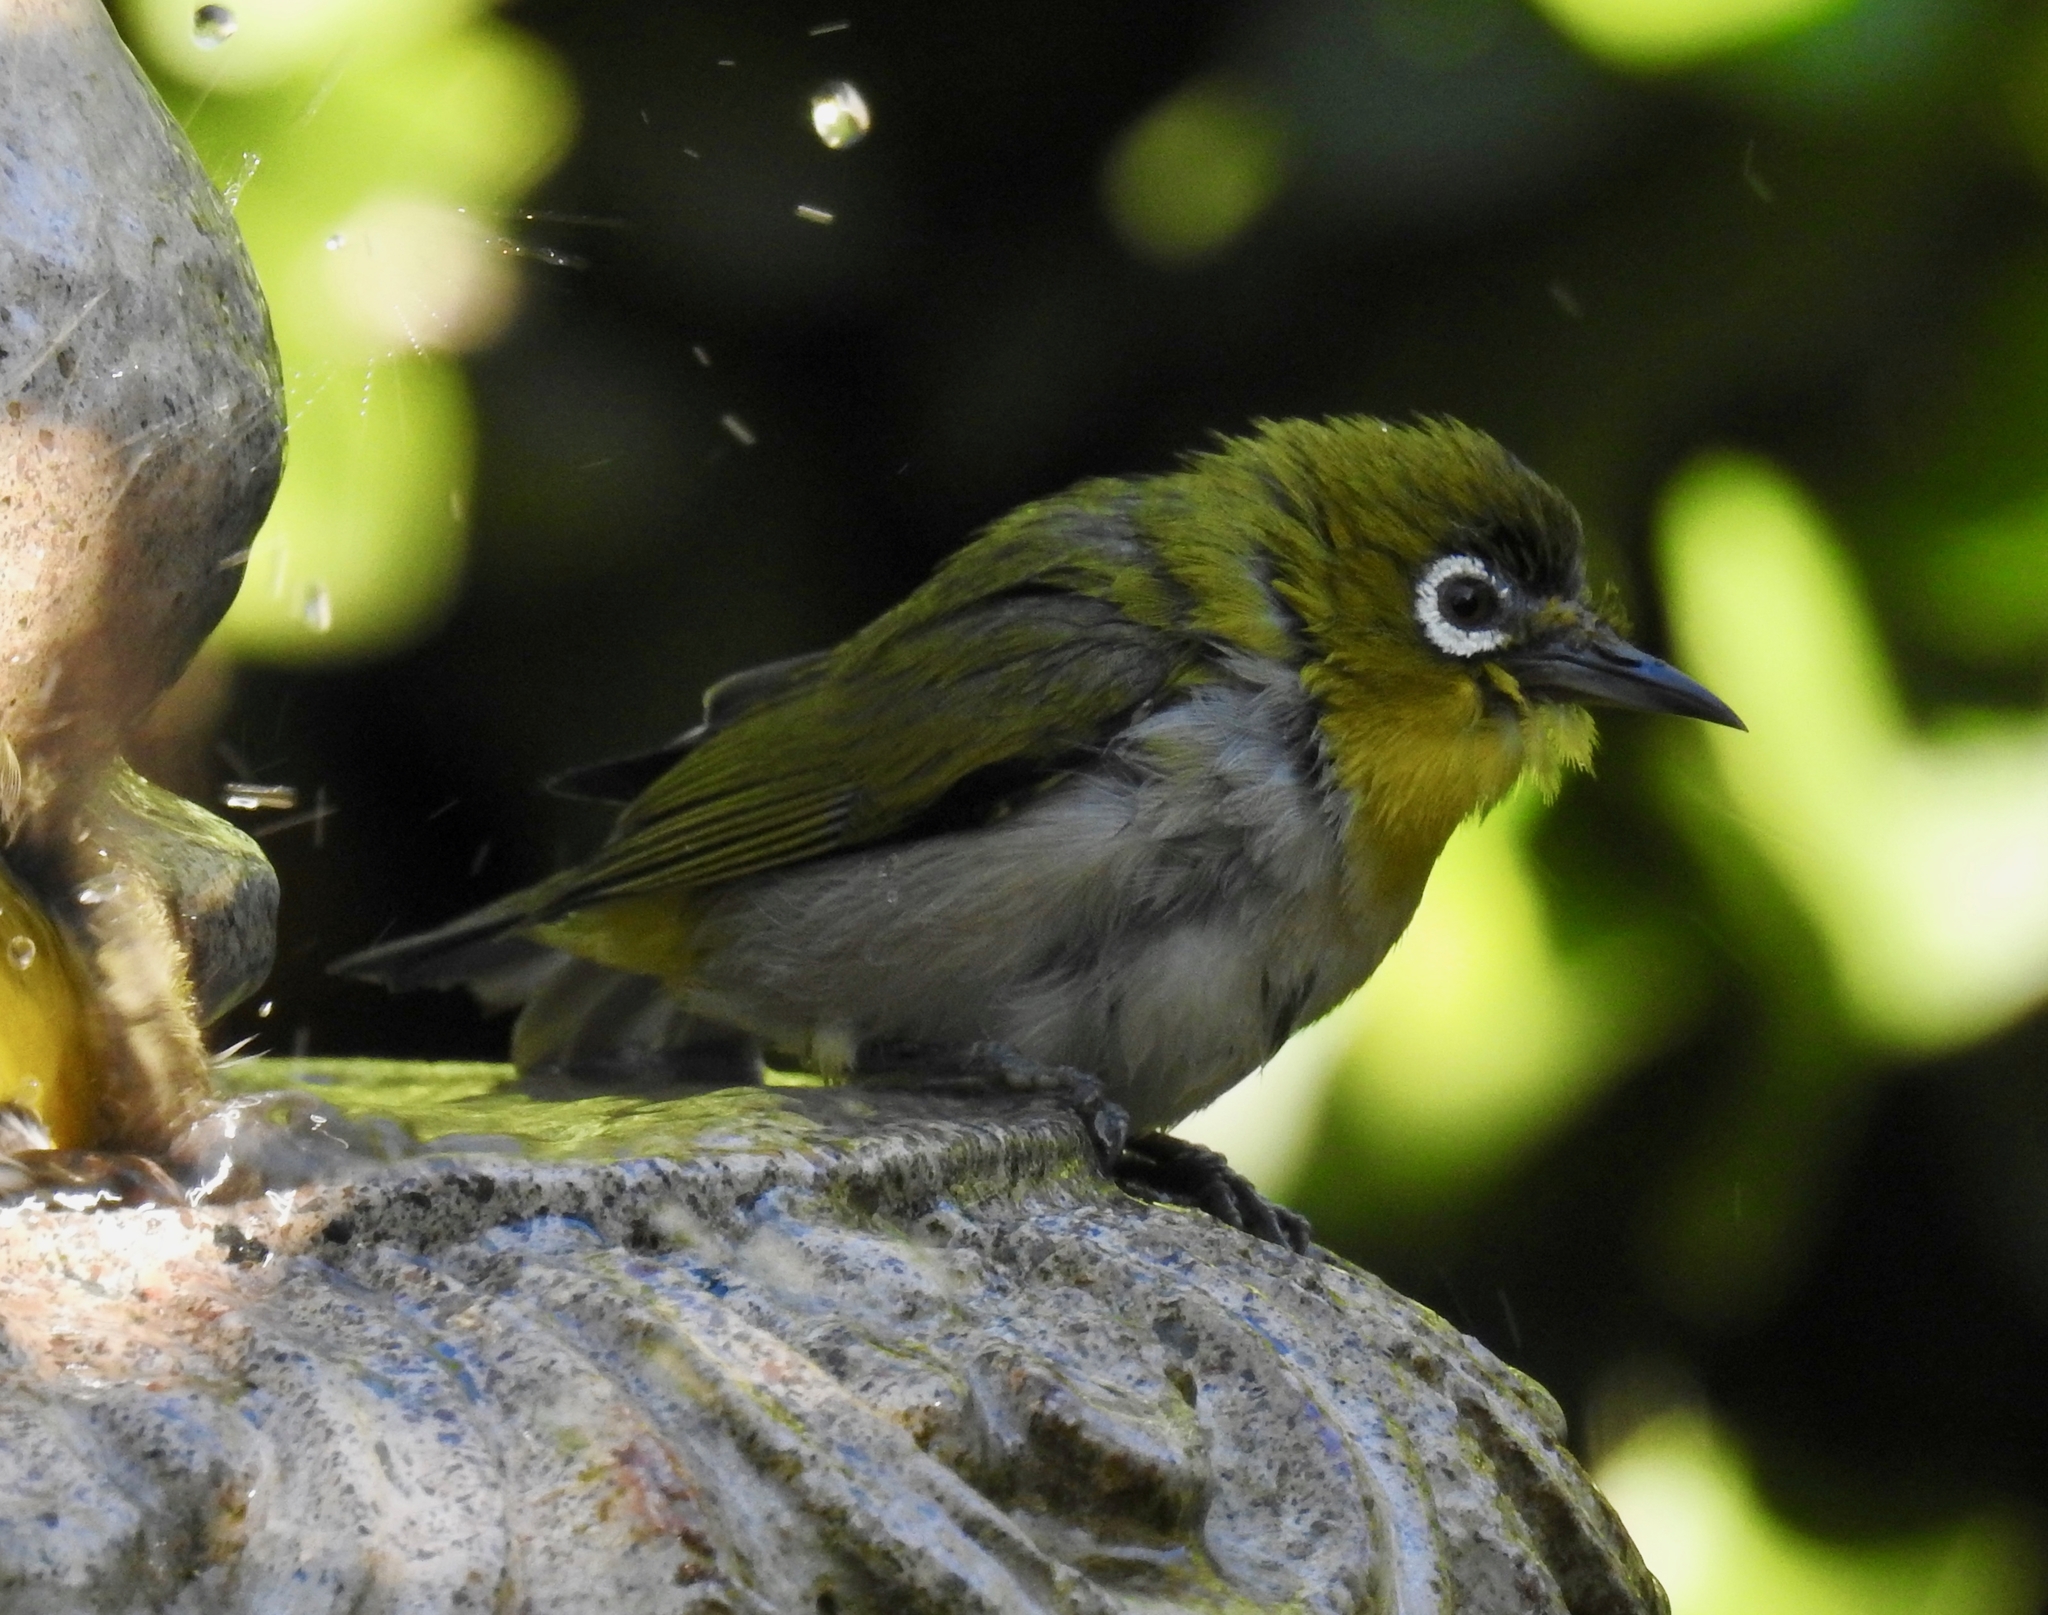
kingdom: Animalia
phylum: Chordata
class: Aves
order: Passeriformes
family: Zosteropidae
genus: Zosterops
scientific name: Zosterops simplex
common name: Swinhoe's white-eye
